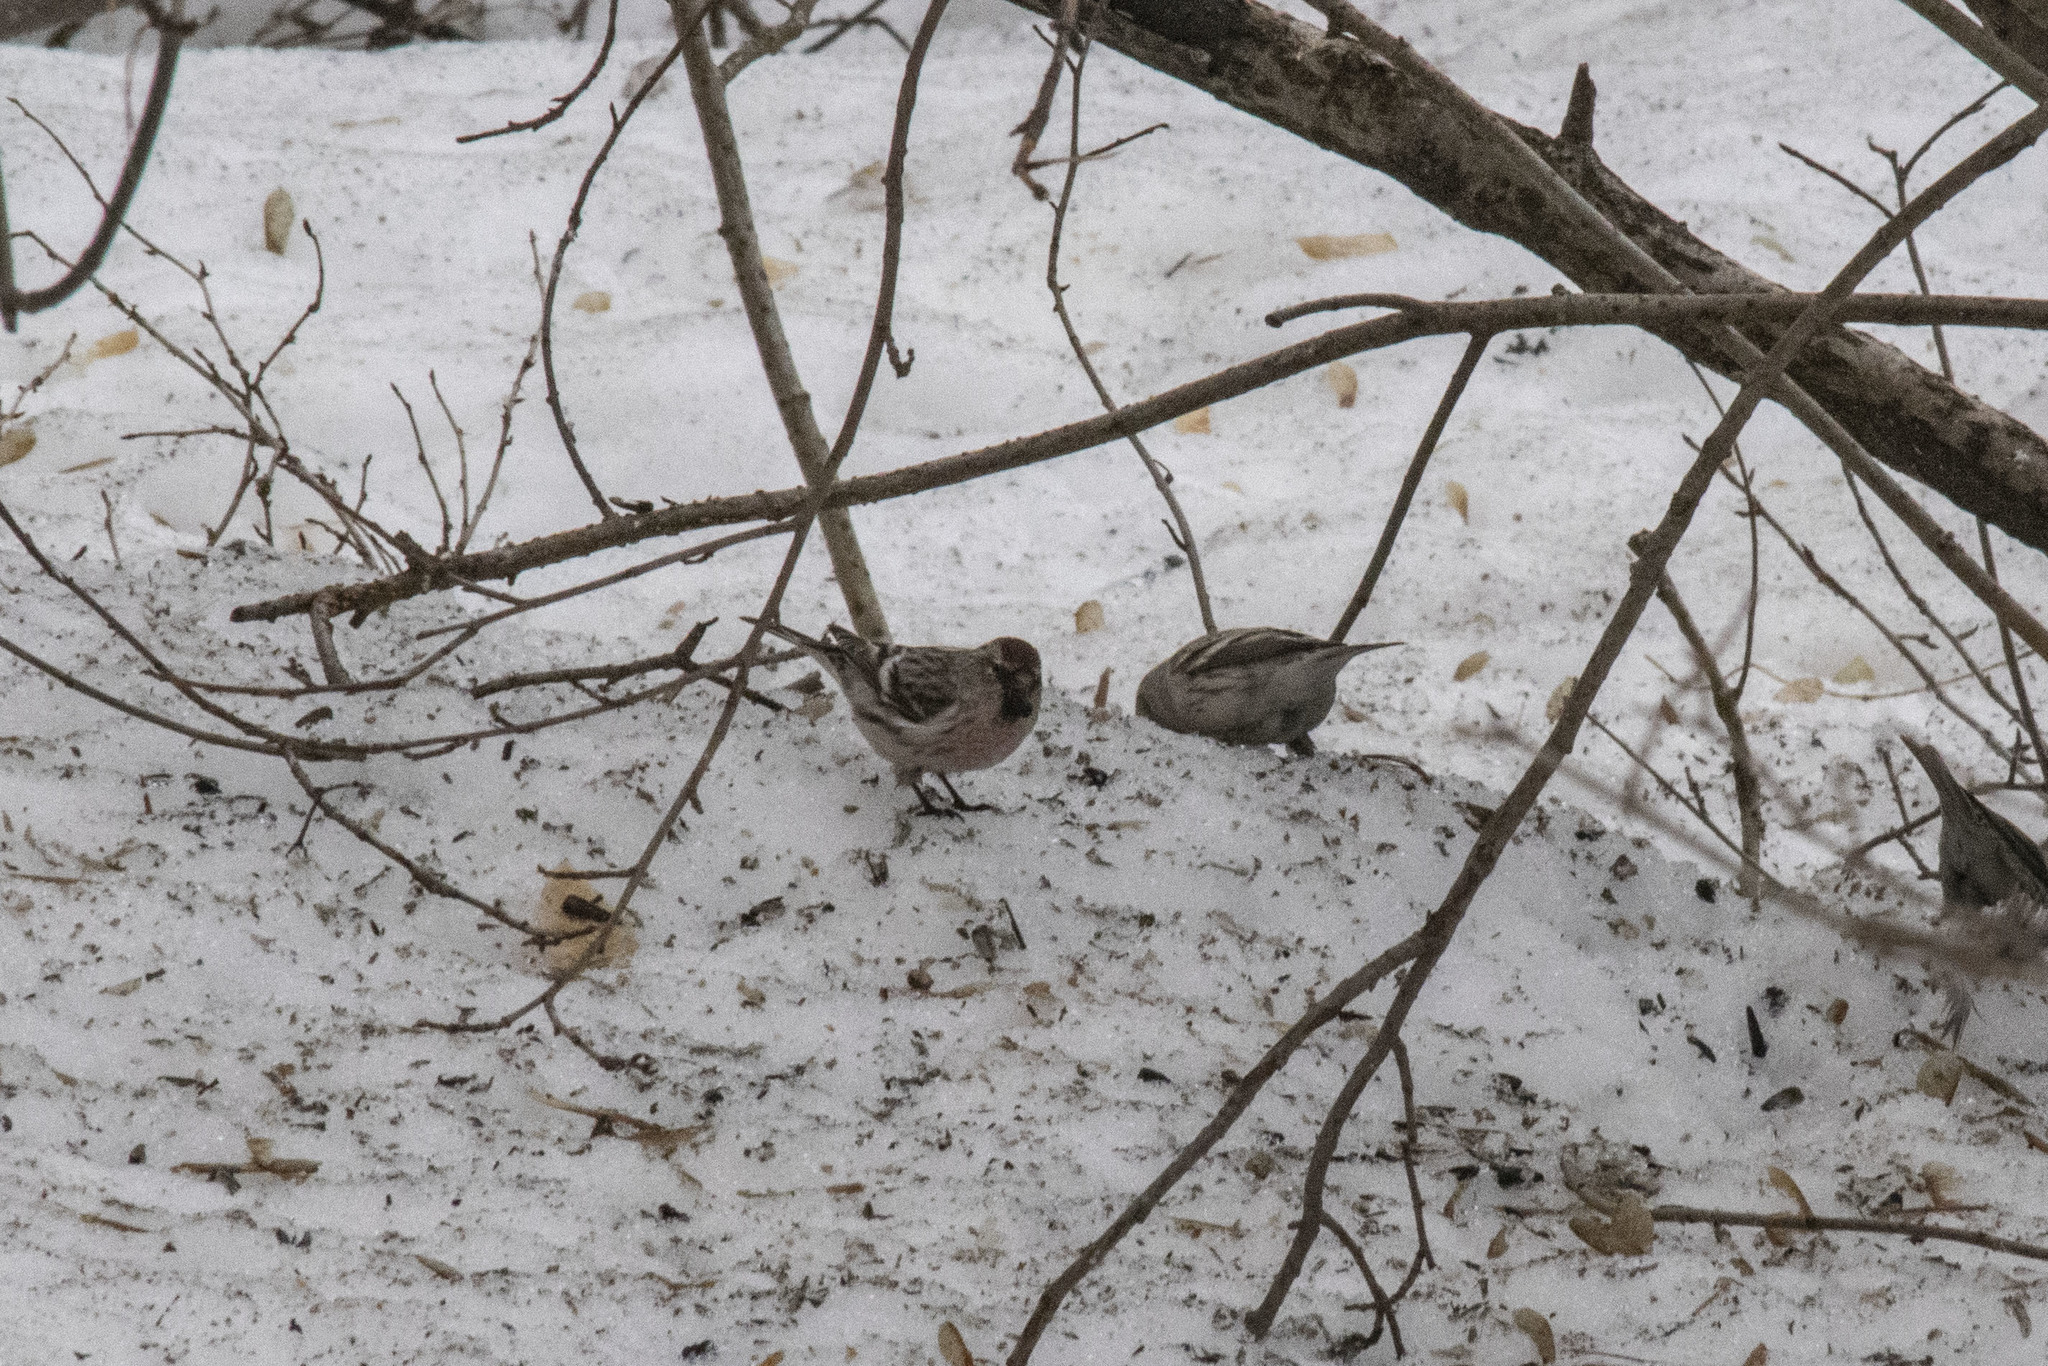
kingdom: Animalia
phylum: Chordata
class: Aves
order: Passeriformes
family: Fringillidae
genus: Acanthis
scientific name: Acanthis flammea
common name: Common redpoll
